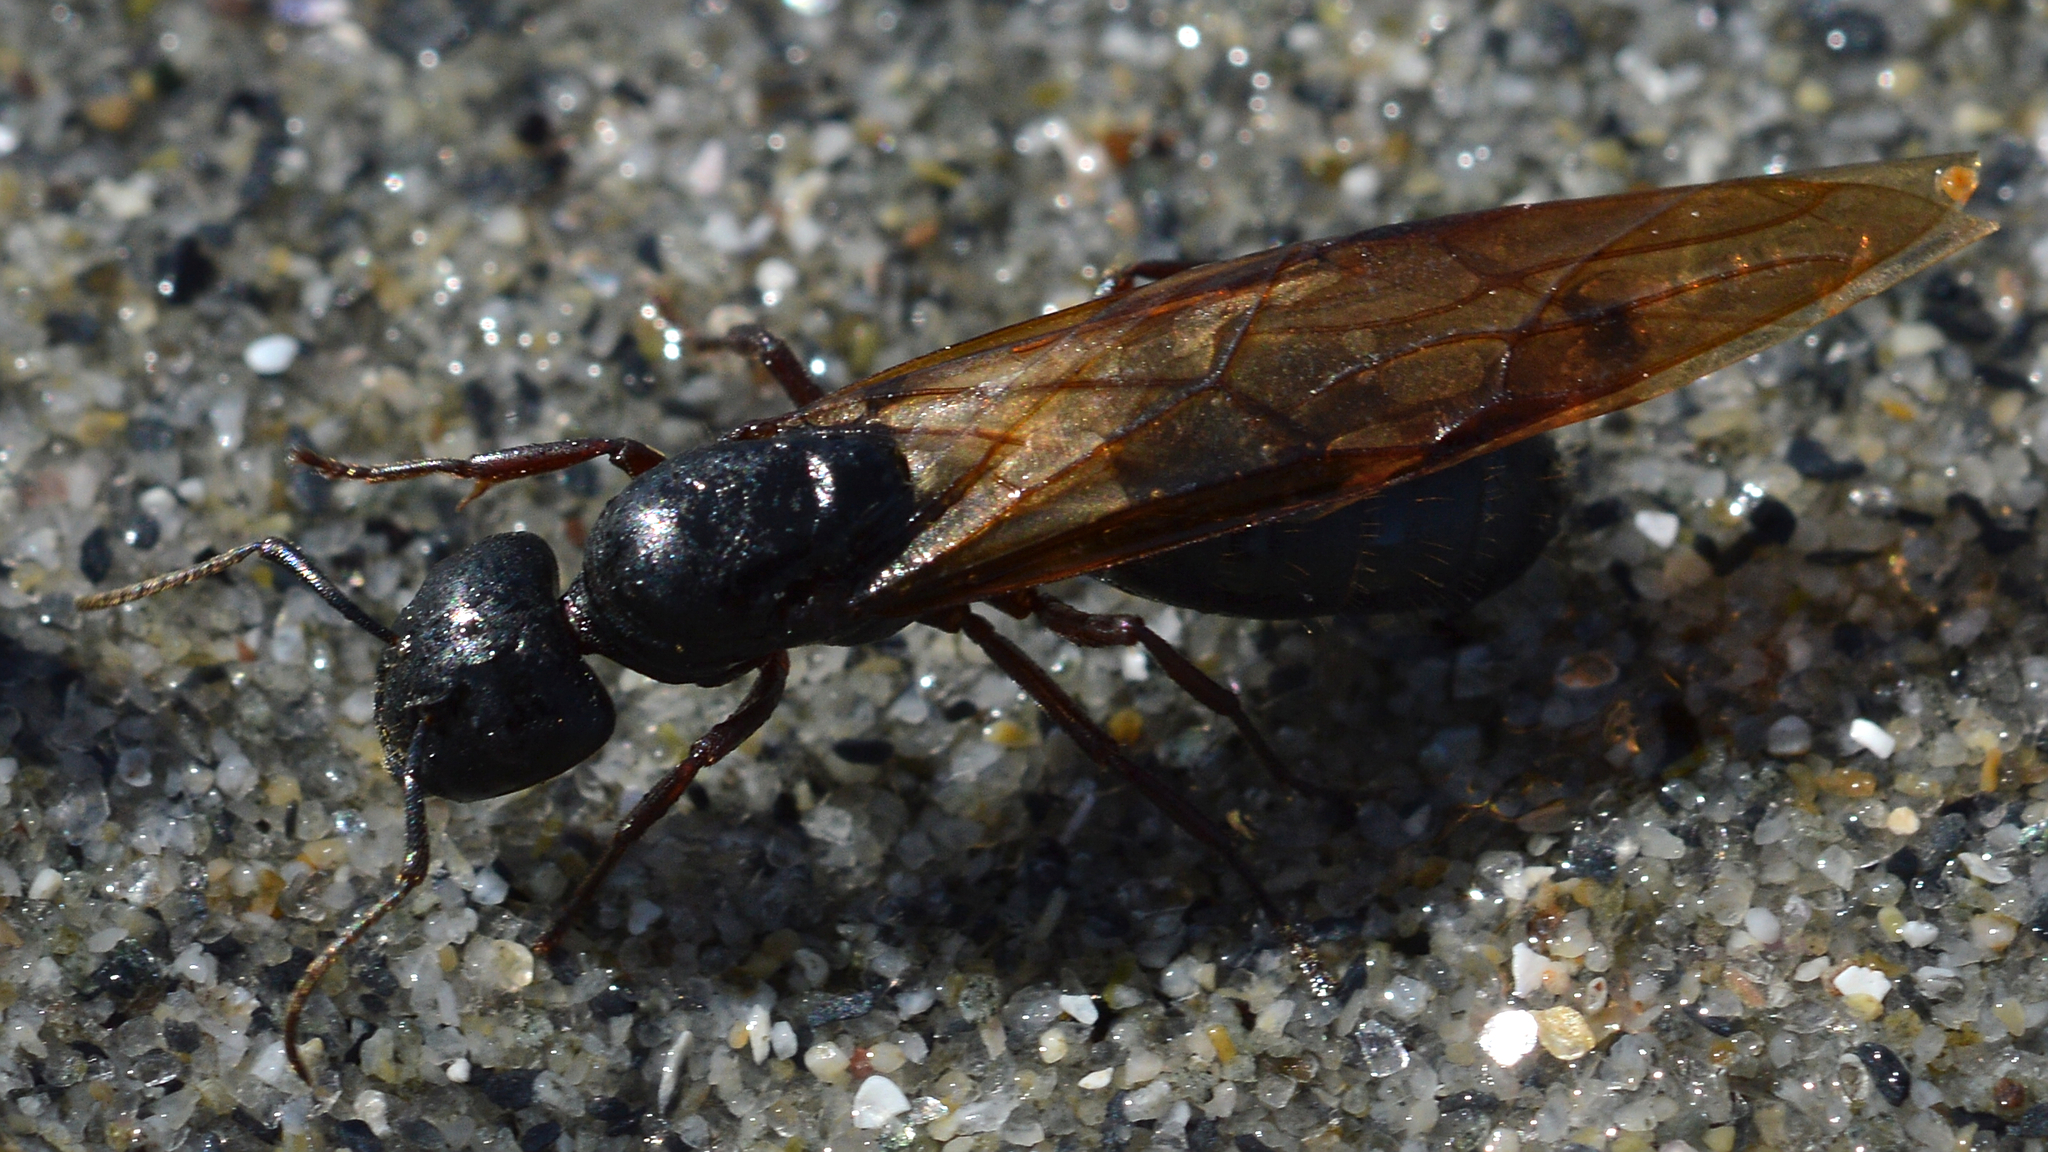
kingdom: Animalia
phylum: Arthropoda
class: Insecta
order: Hymenoptera
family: Formicidae
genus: Camponotus
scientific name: Camponotus herculeanus
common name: Hercules ant
